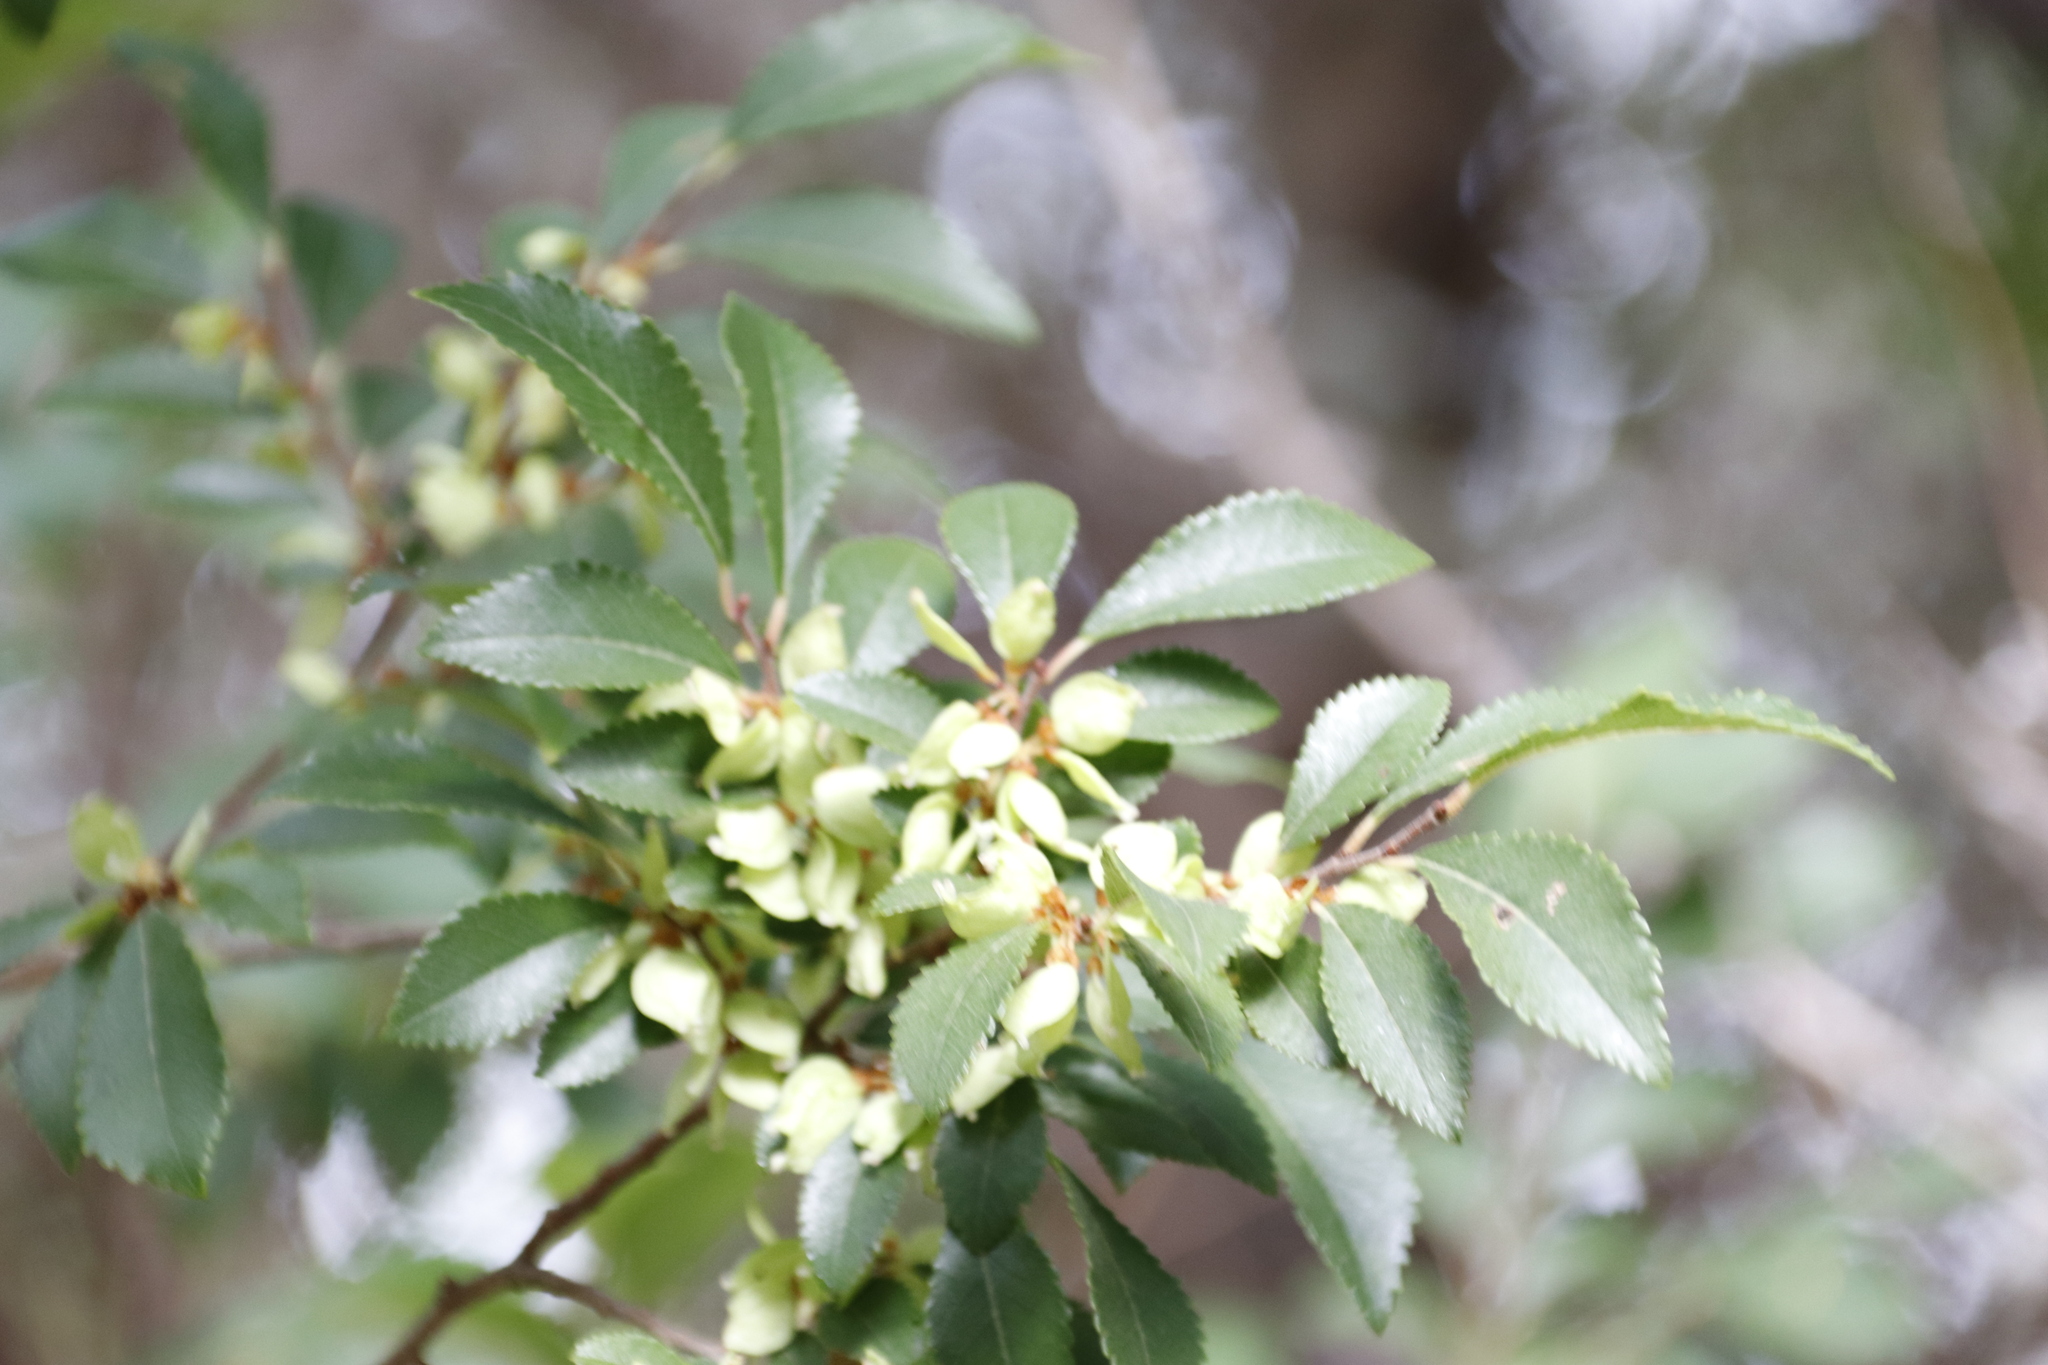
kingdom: Plantae
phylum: Tracheophyta
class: Magnoliopsida
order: Rosales
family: Ulmaceae
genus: Ulmus
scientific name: Ulmus parvifolia
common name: Chinese elm
